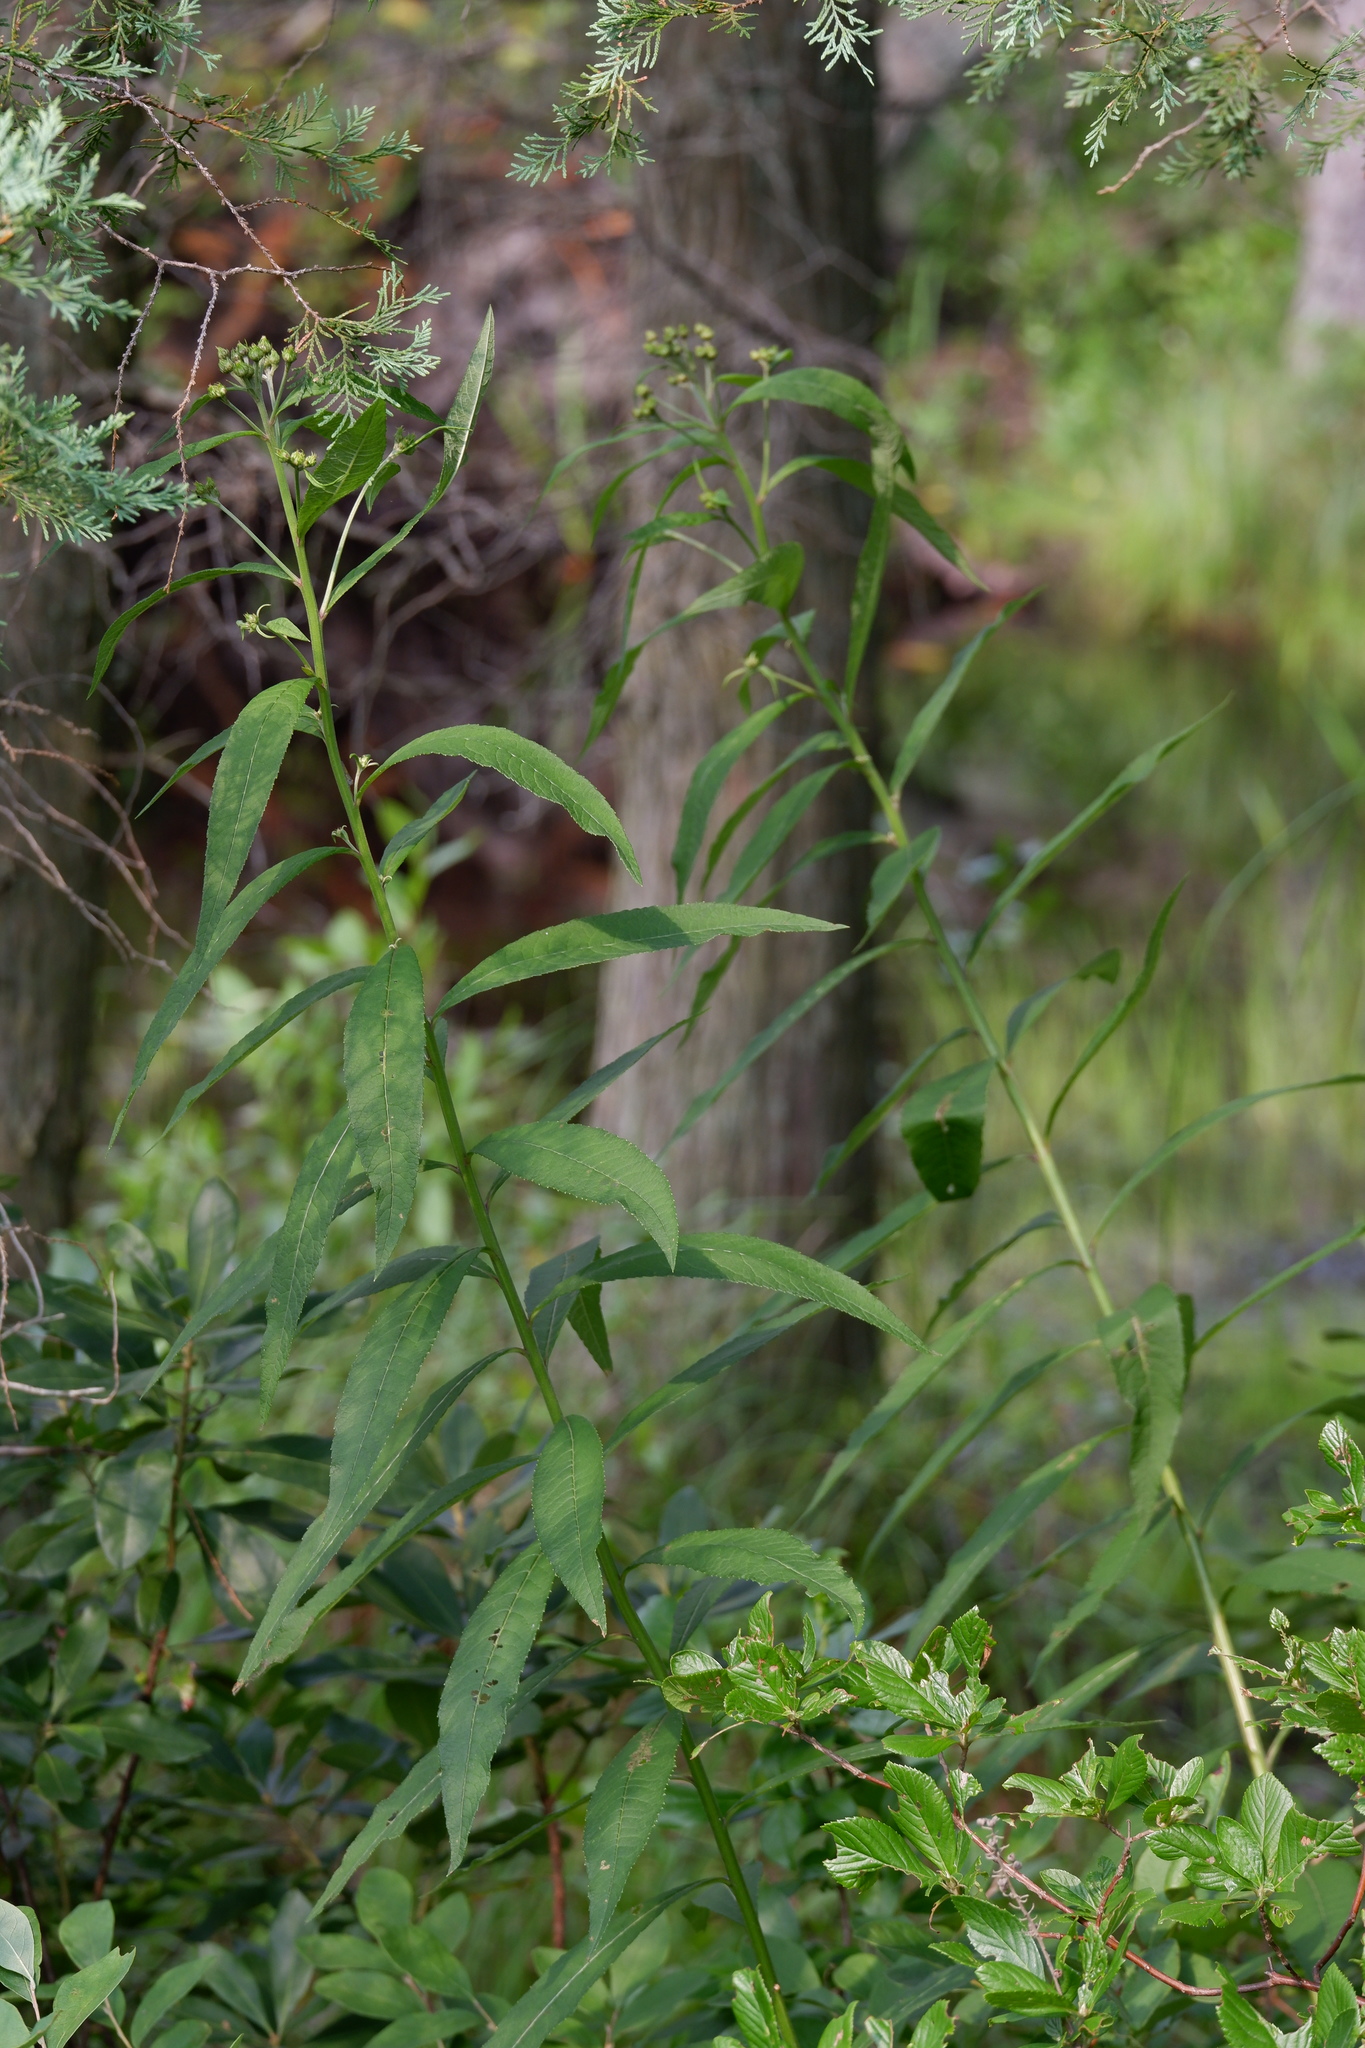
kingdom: Plantae
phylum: Tracheophyta
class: Magnoliopsida
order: Asterales
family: Asteraceae
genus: Vernonia
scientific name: Vernonia noveboracensis
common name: New york ironweed
